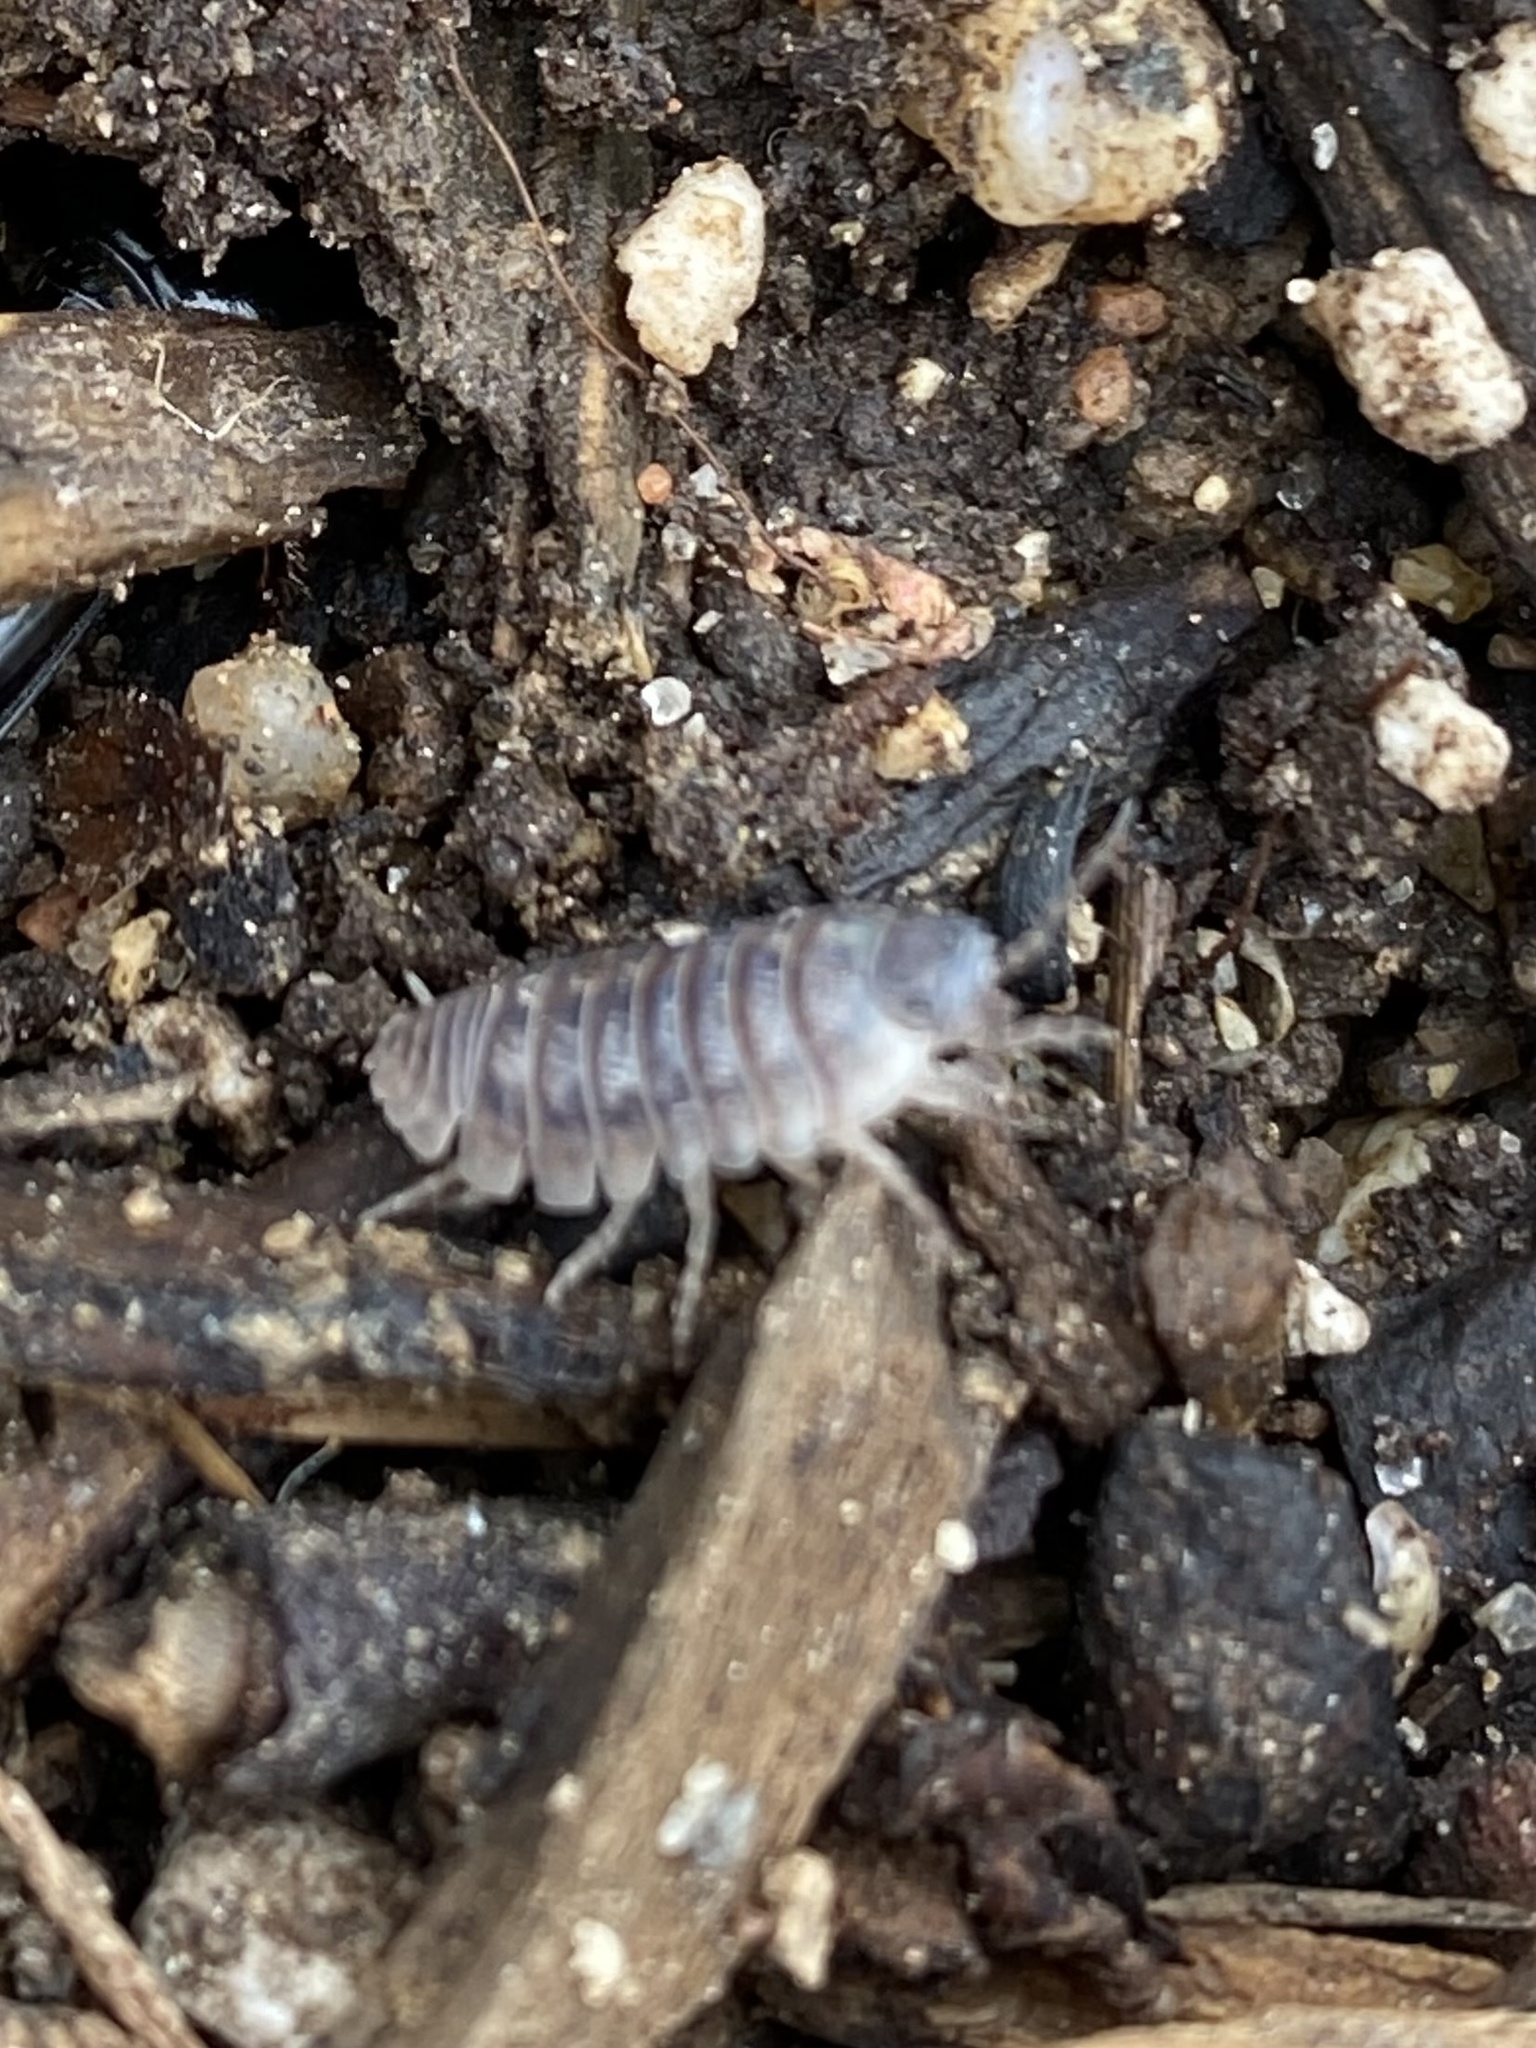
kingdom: Animalia
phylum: Arthropoda
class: Malacostraca
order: Isopoda
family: Armadillidiidae
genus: Armadillidium
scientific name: Armadillidium vulgare
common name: Common pill woodlouse
